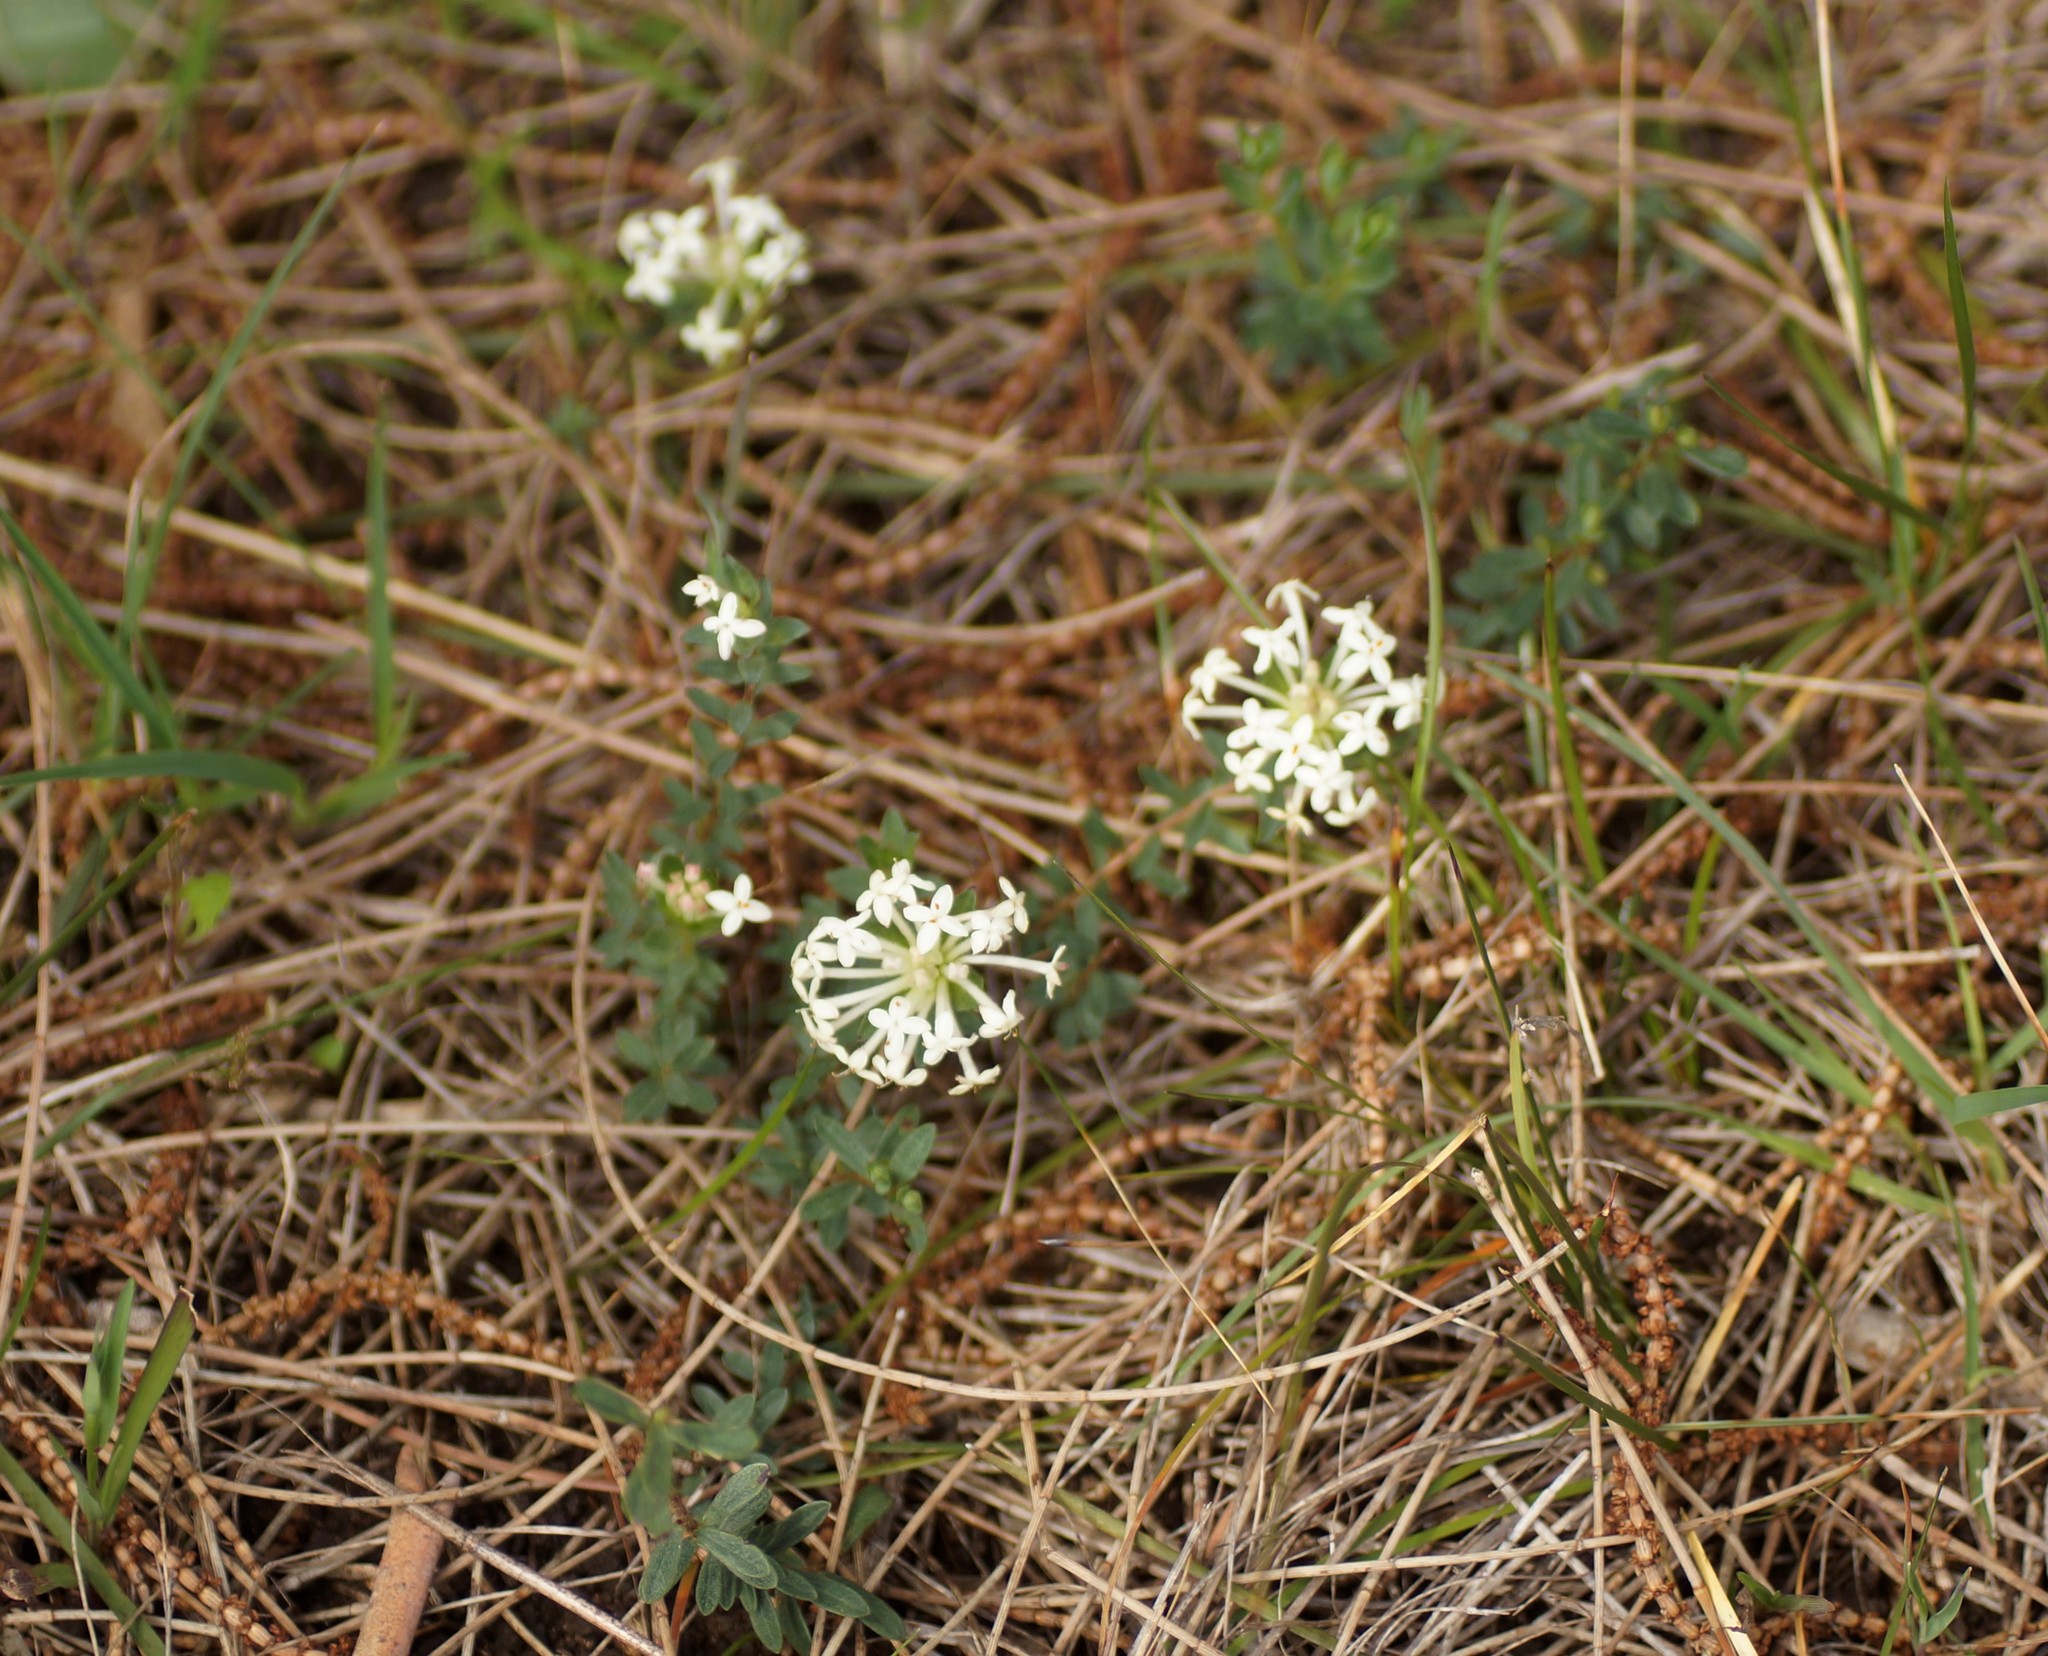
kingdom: Plantae
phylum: Tracheophyta
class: Magnoliopsida
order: Malvales
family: Thymelaeaceae
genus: Pimelea
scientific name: Pimelea humilis
